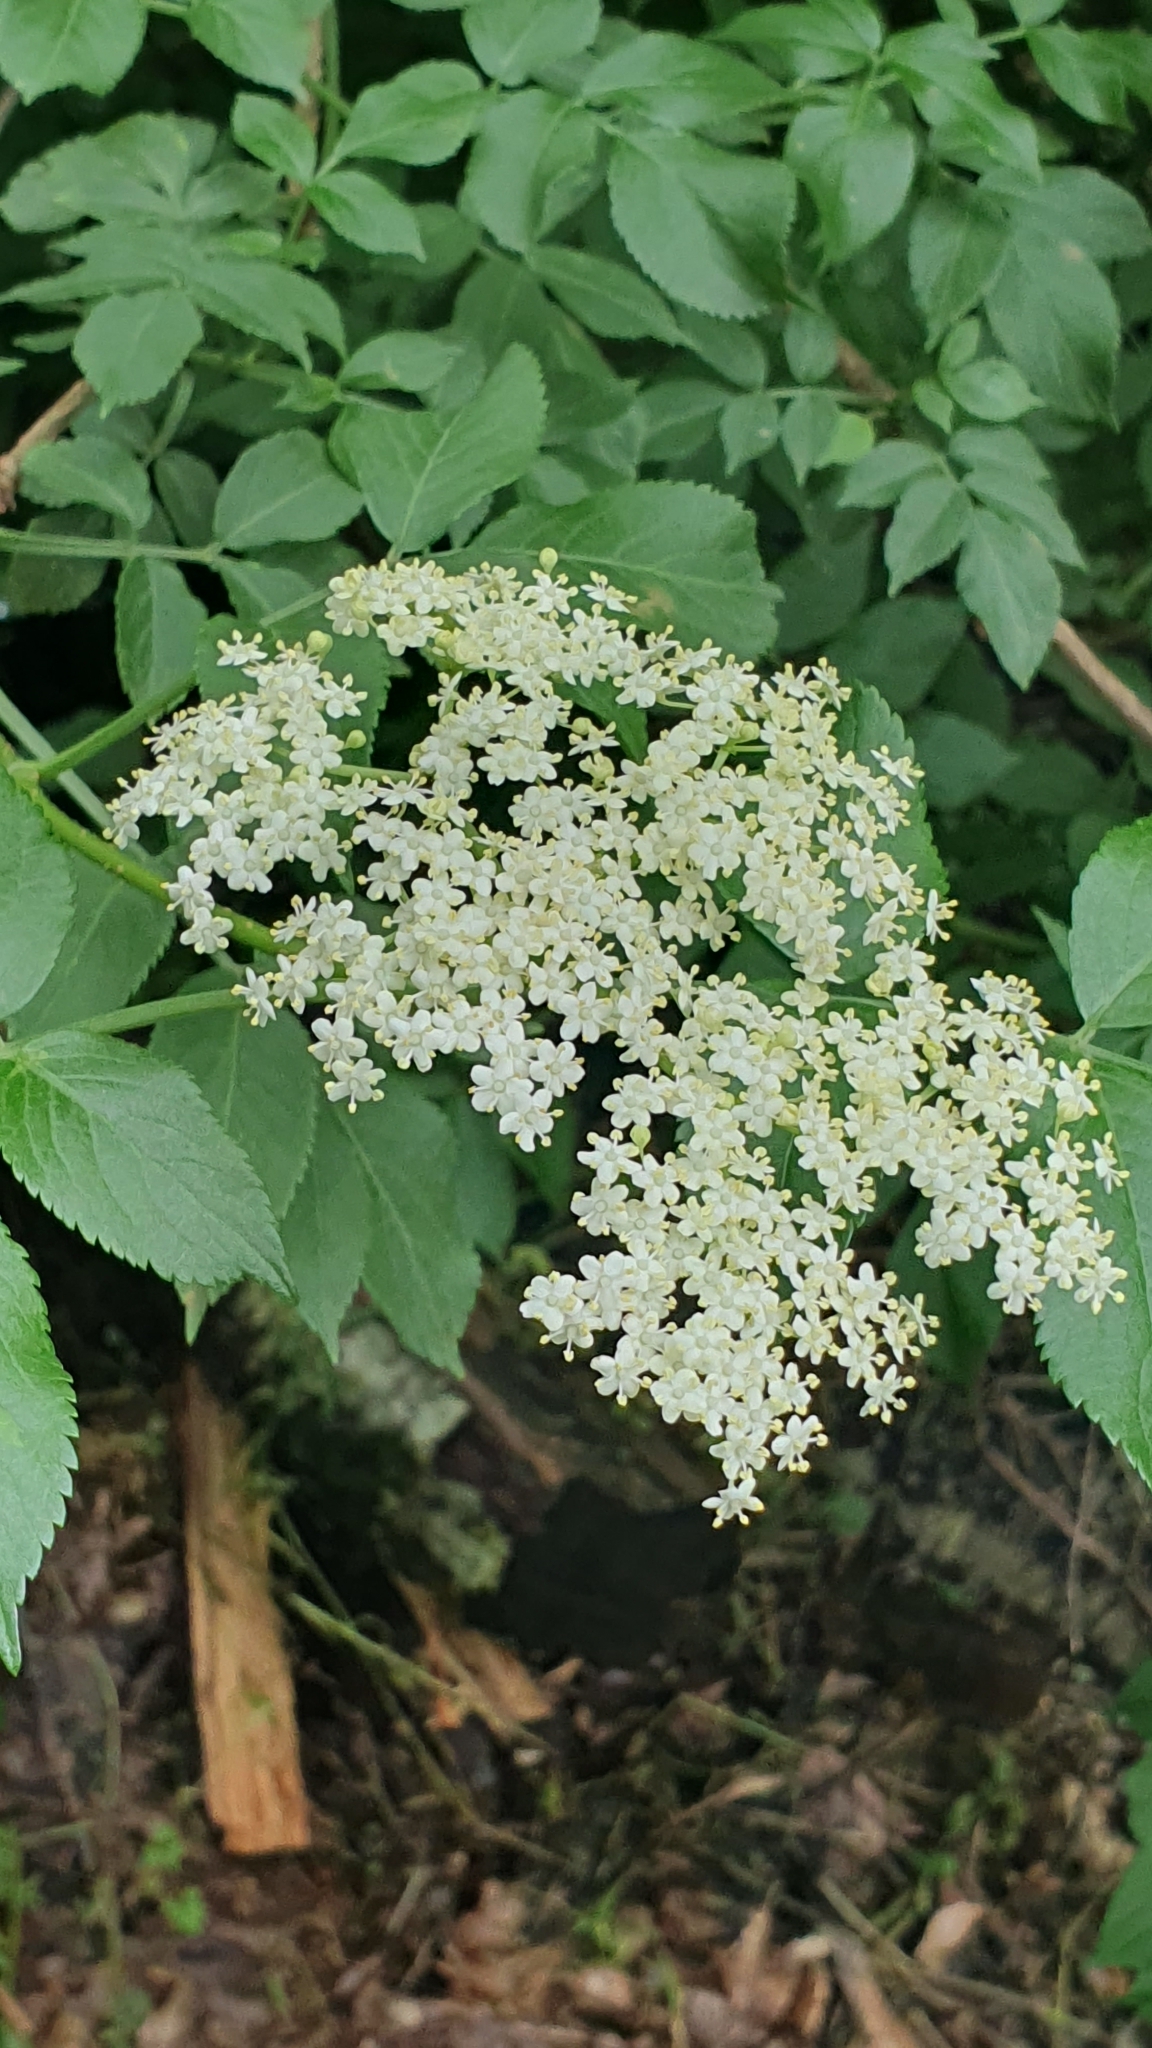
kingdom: Plantae
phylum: Tracheophyta
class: Magnoliopsida
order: Dipsacales
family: Viburnaceae
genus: Sambucus
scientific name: Sambucus nigra
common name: Elder
